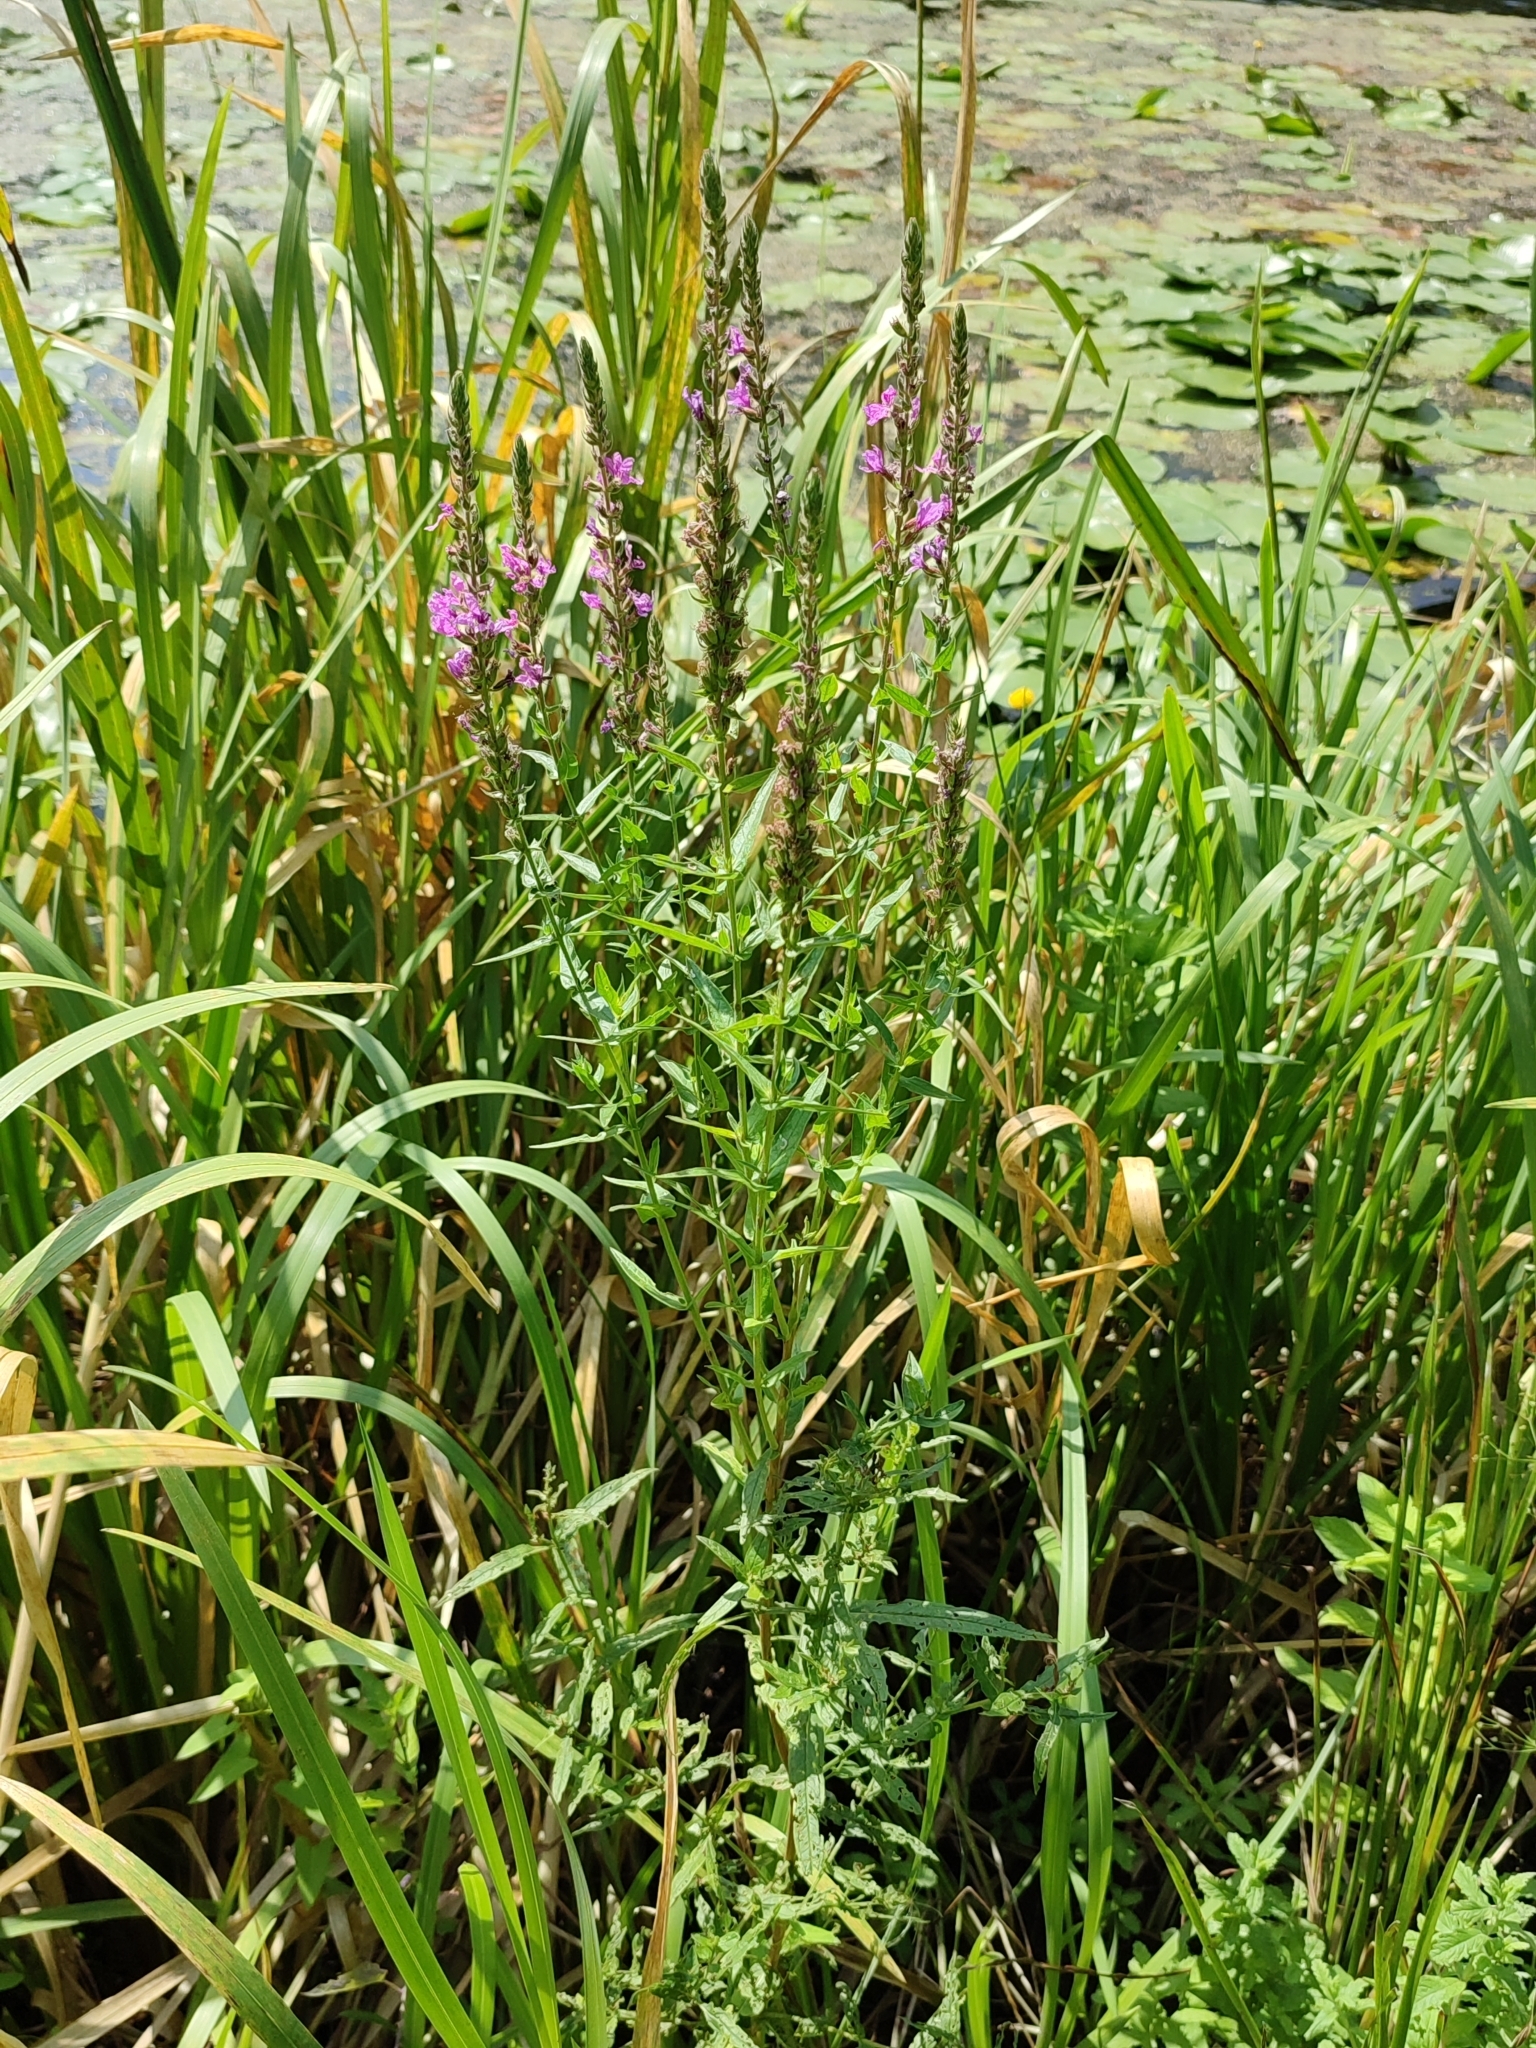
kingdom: Plantae
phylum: Tracheophyta
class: Magnoliopsida
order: Myrtales
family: Lythraceae
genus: Lythrum
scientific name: Lythrum salicaria
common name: Purple loosestrife
